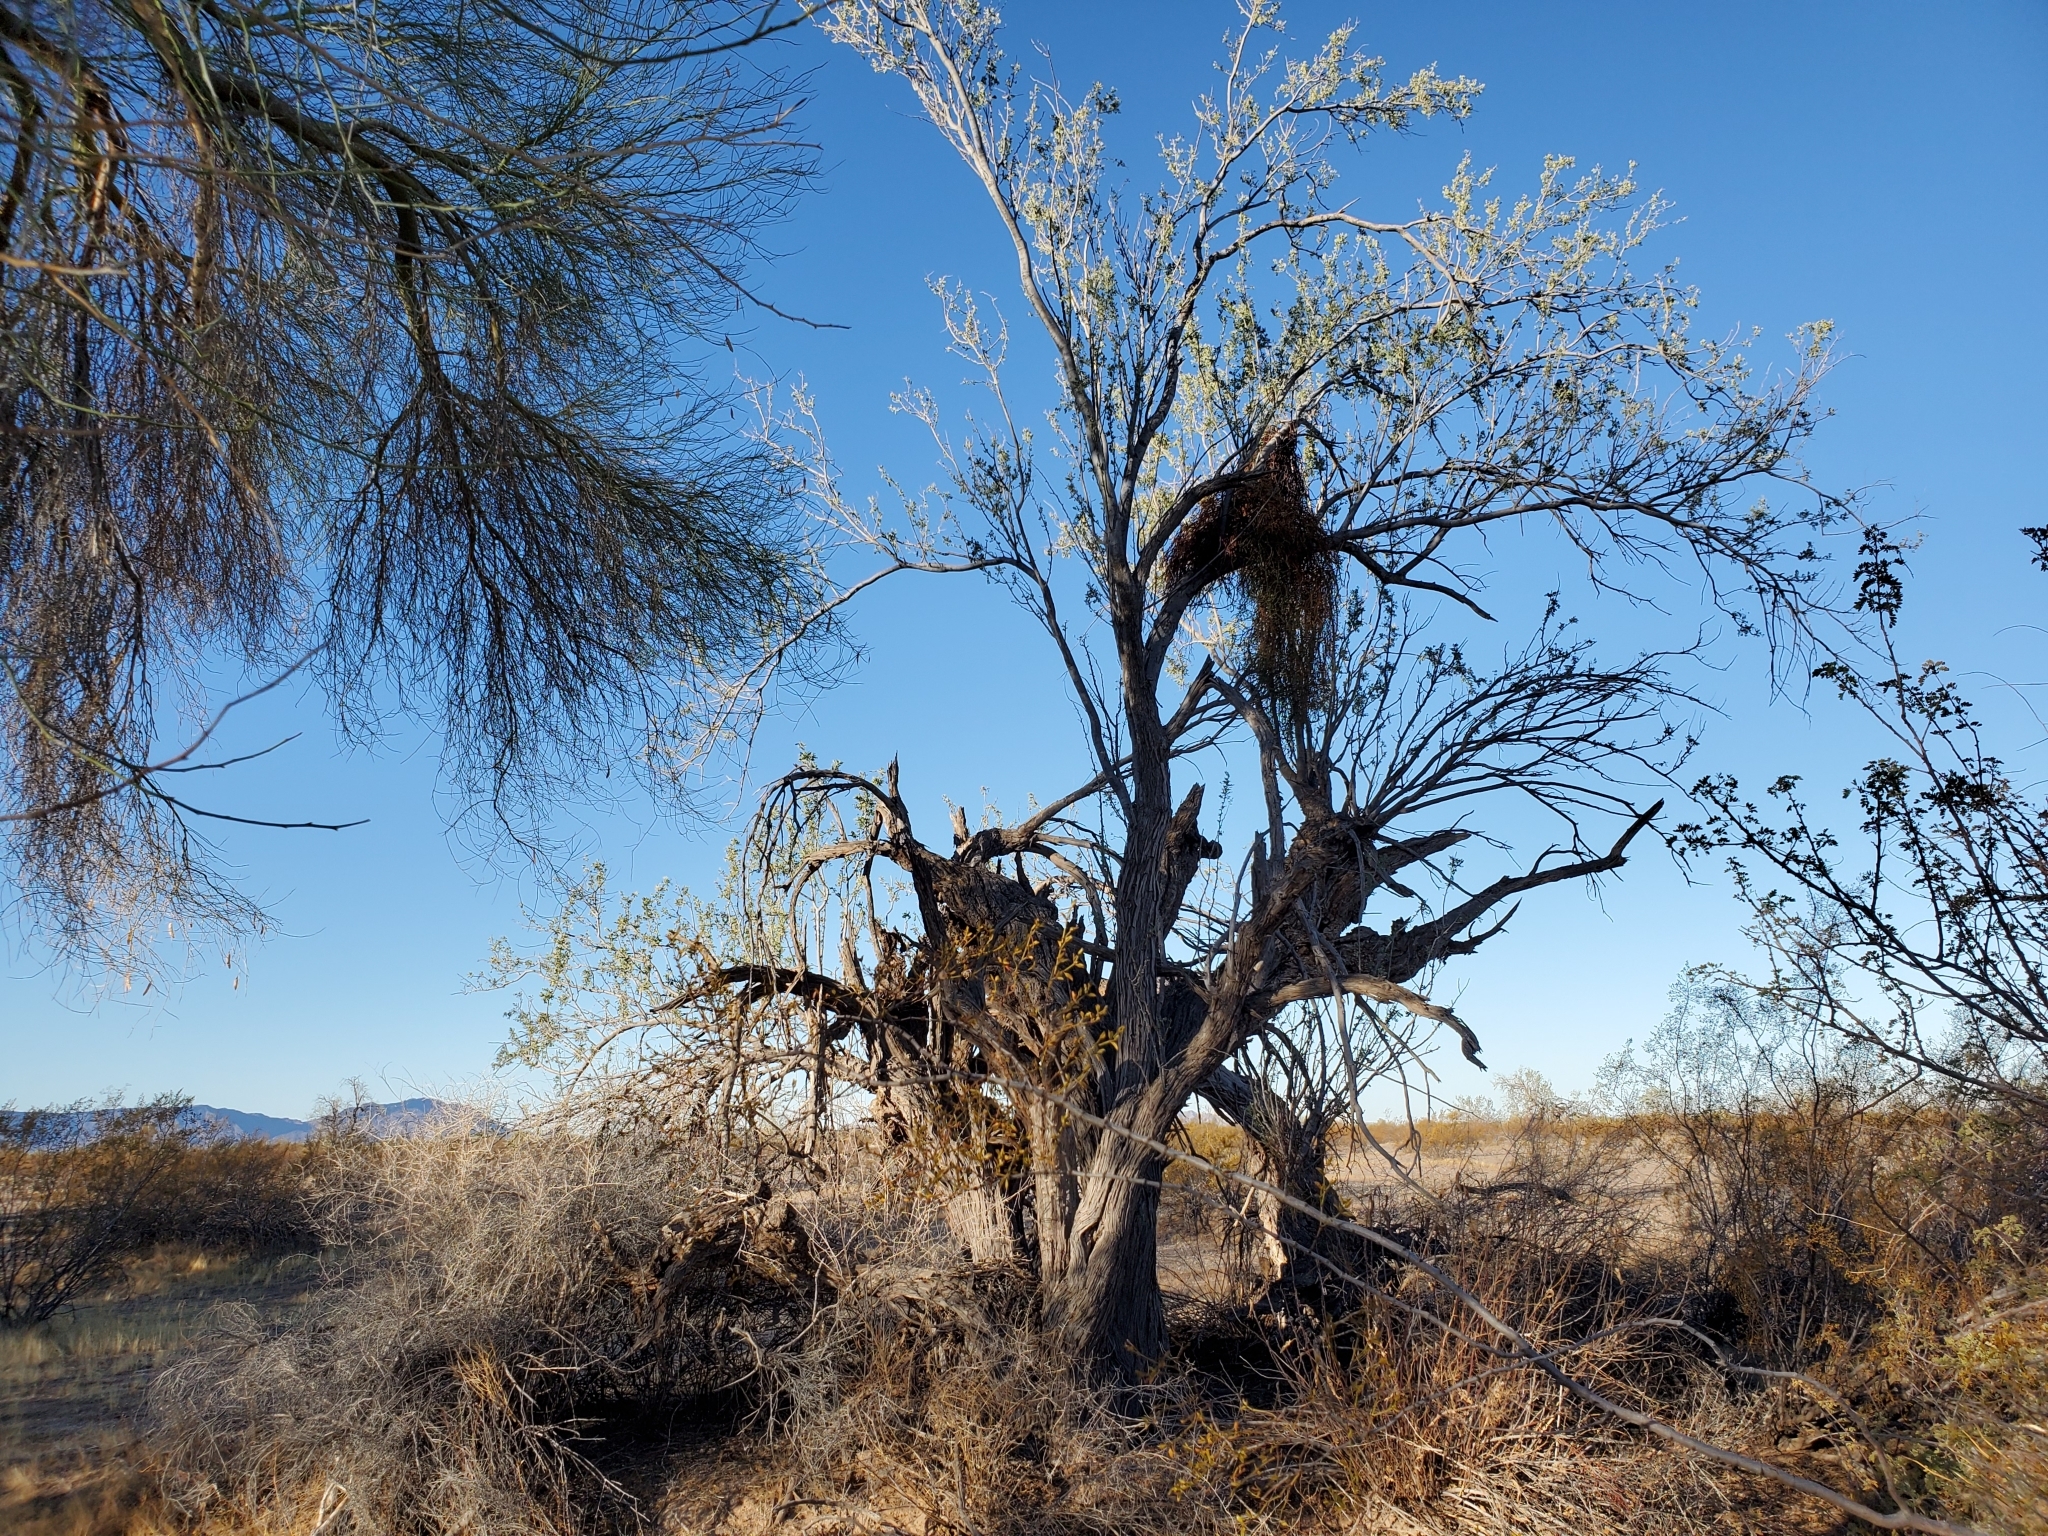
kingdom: Plantae
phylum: Tracheophyta
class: Magnoliopsida
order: Fabales
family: Fabaceae
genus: Olneya
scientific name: Olneya tesota
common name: Desert ironwood
